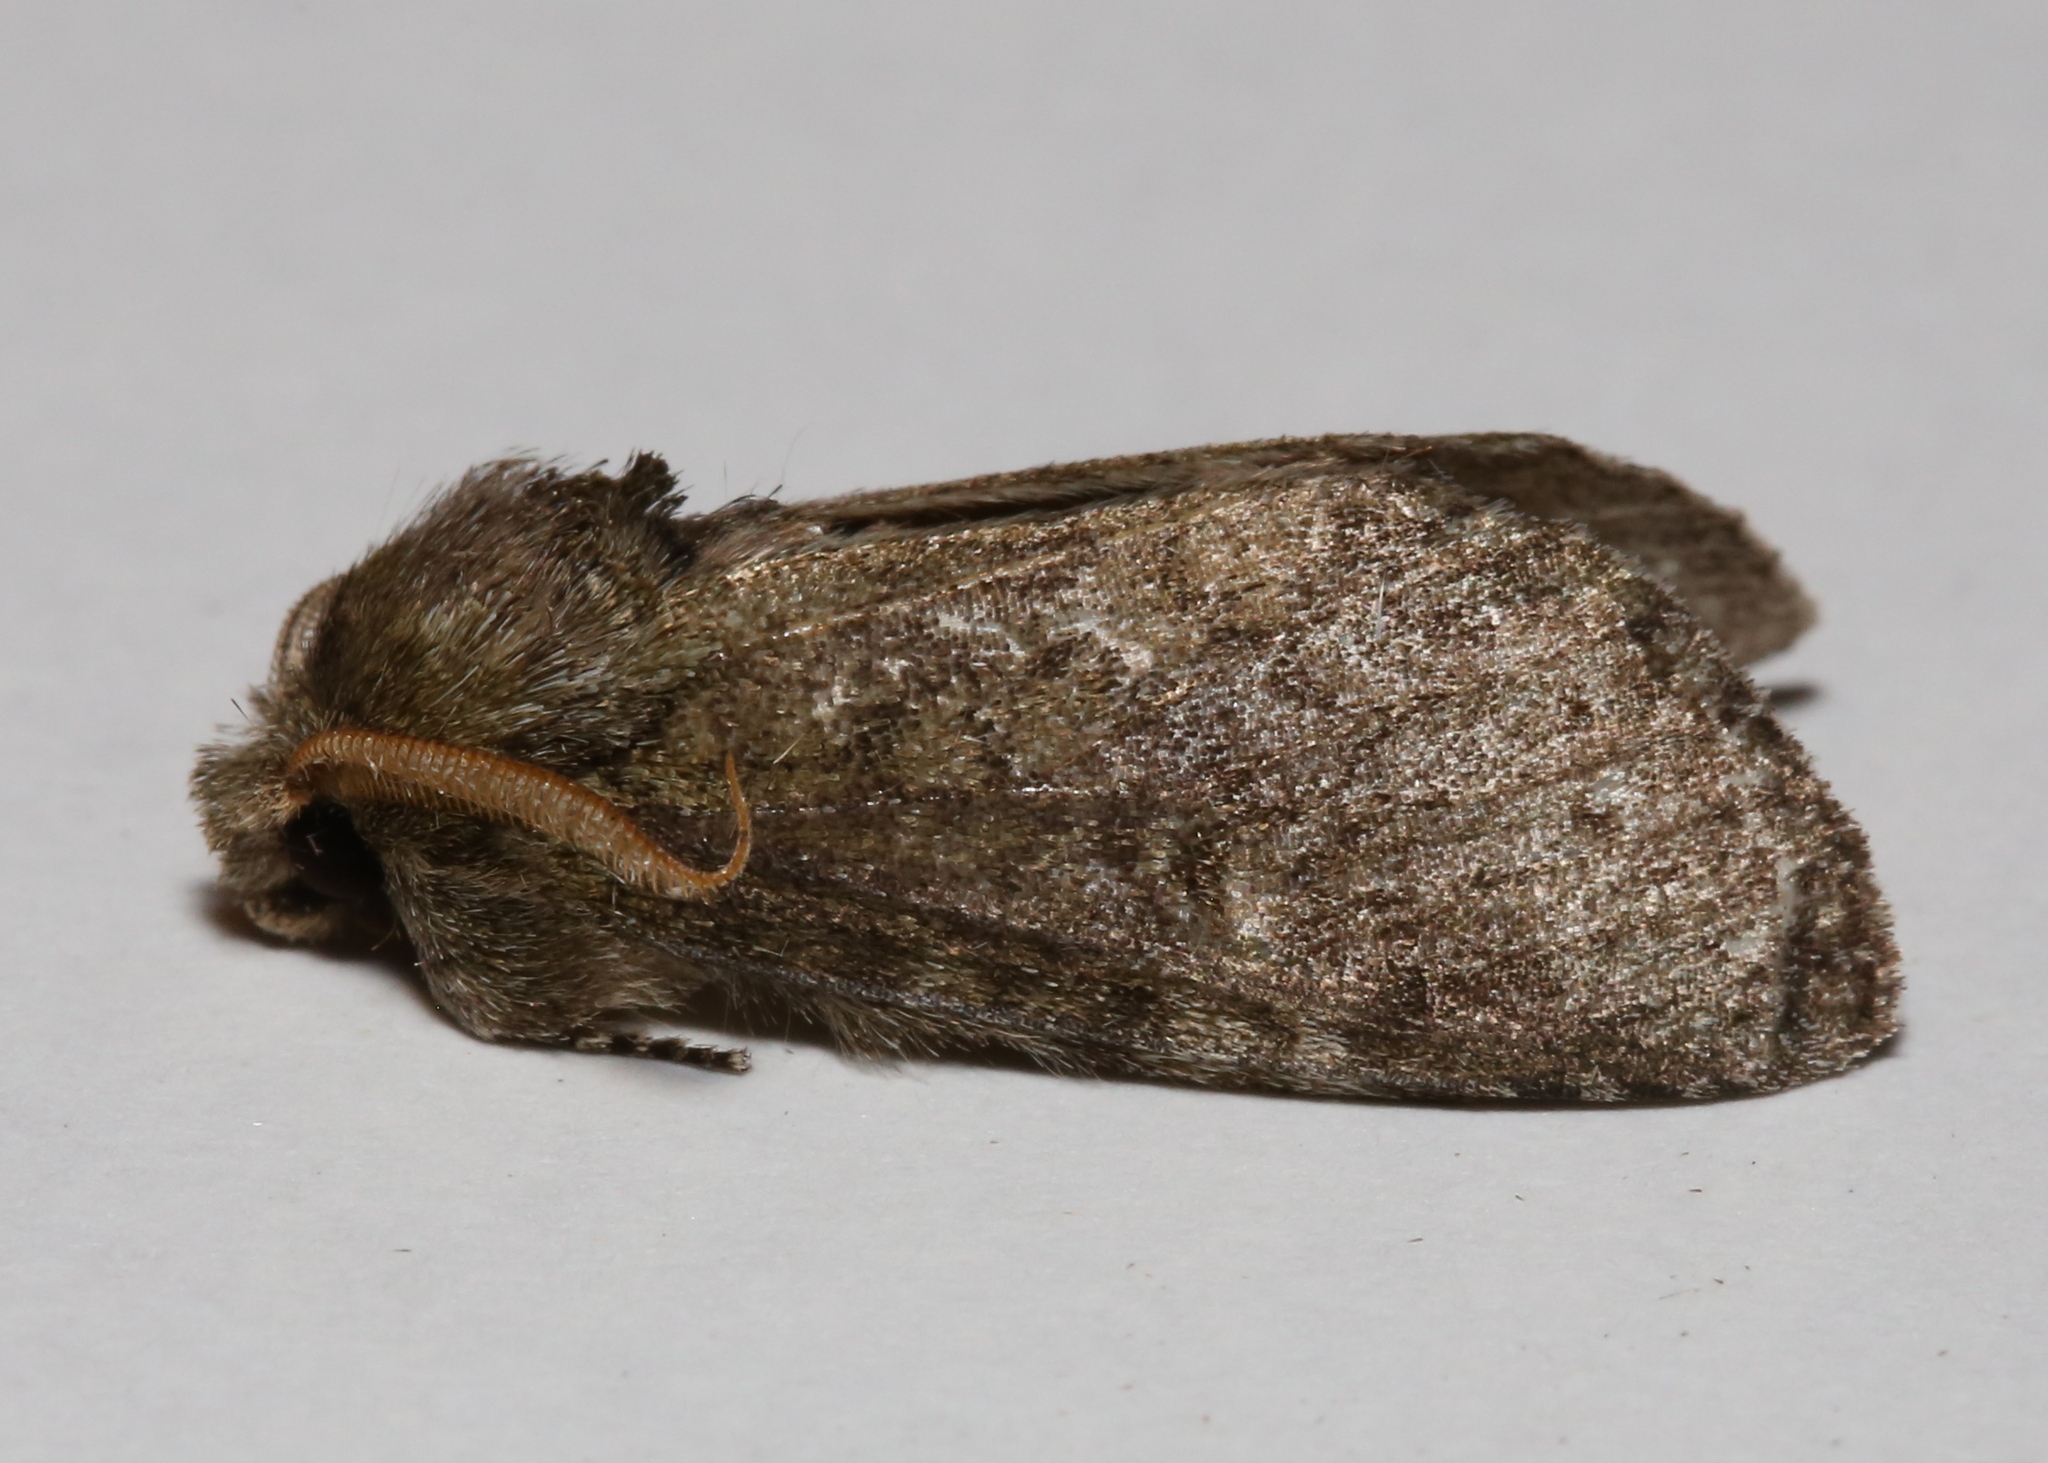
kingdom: Animalia
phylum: Arthropoda
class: Insecta
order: Lepidoptera
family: Notodontidae
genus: Disphragis
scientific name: Disphragis Cecrita guttivitta
